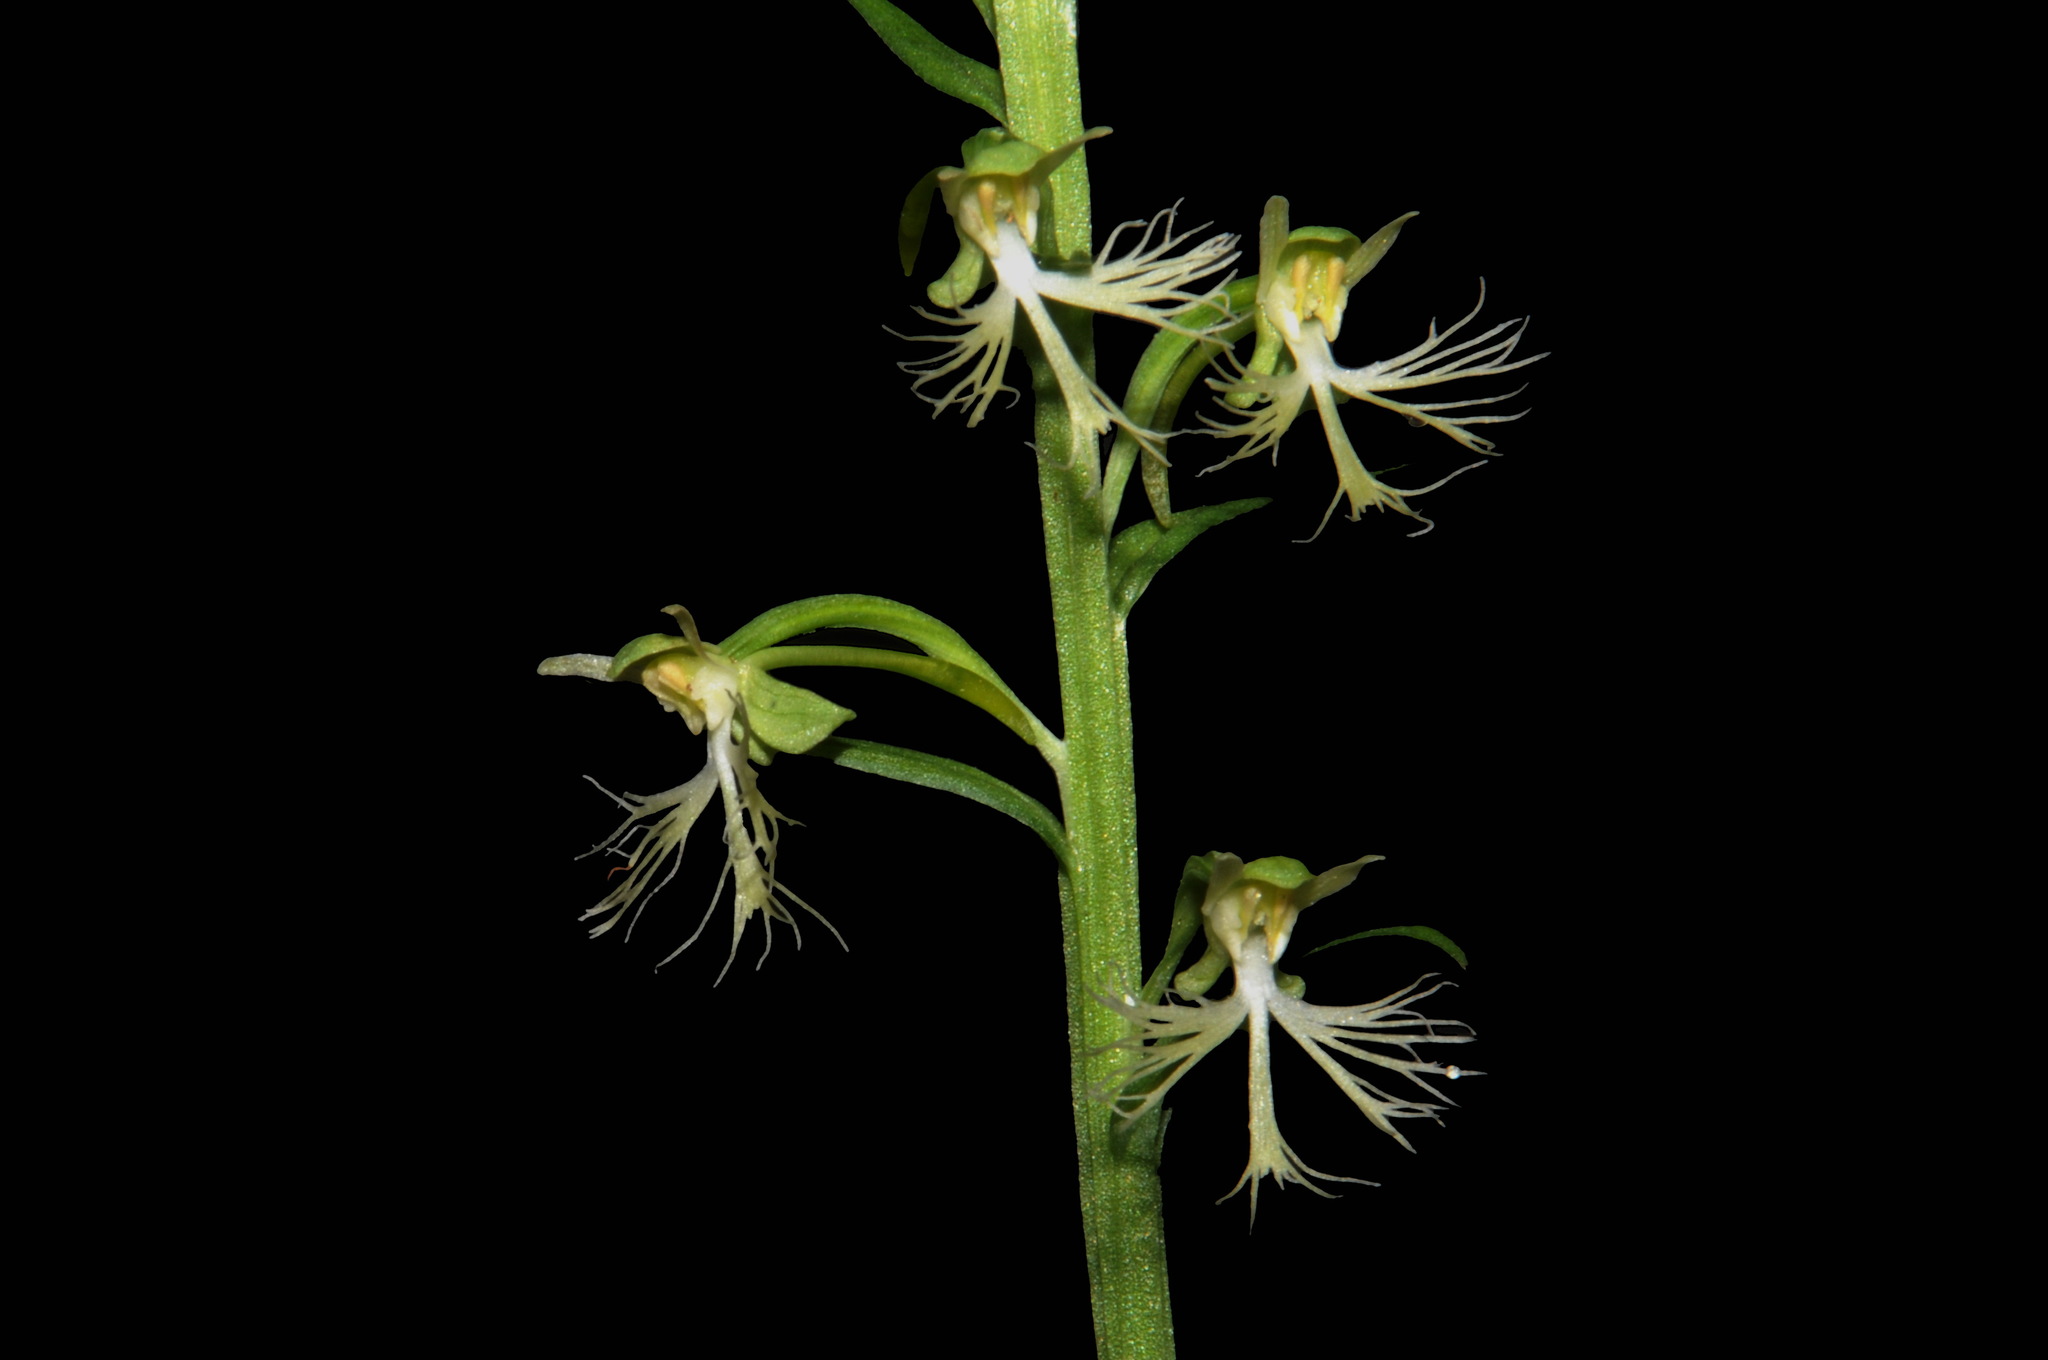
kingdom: Plantae
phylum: Tracheophyta
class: Liliopsida
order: Asparagales
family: Orchidaceae
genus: Platanthera
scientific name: Platanthera lacera
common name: Green fringed orchid
